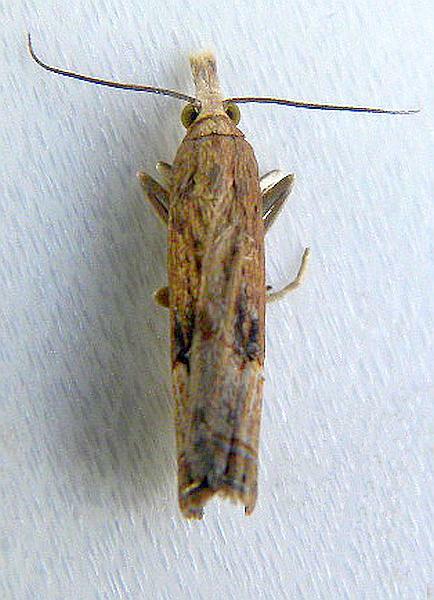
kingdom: Animalia
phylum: Arthropoda
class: Insecta
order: Lepidoptera
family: Crambidae
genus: Parapediasia
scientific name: Parapediasia teterellus
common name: Bluegrass webworm moth
